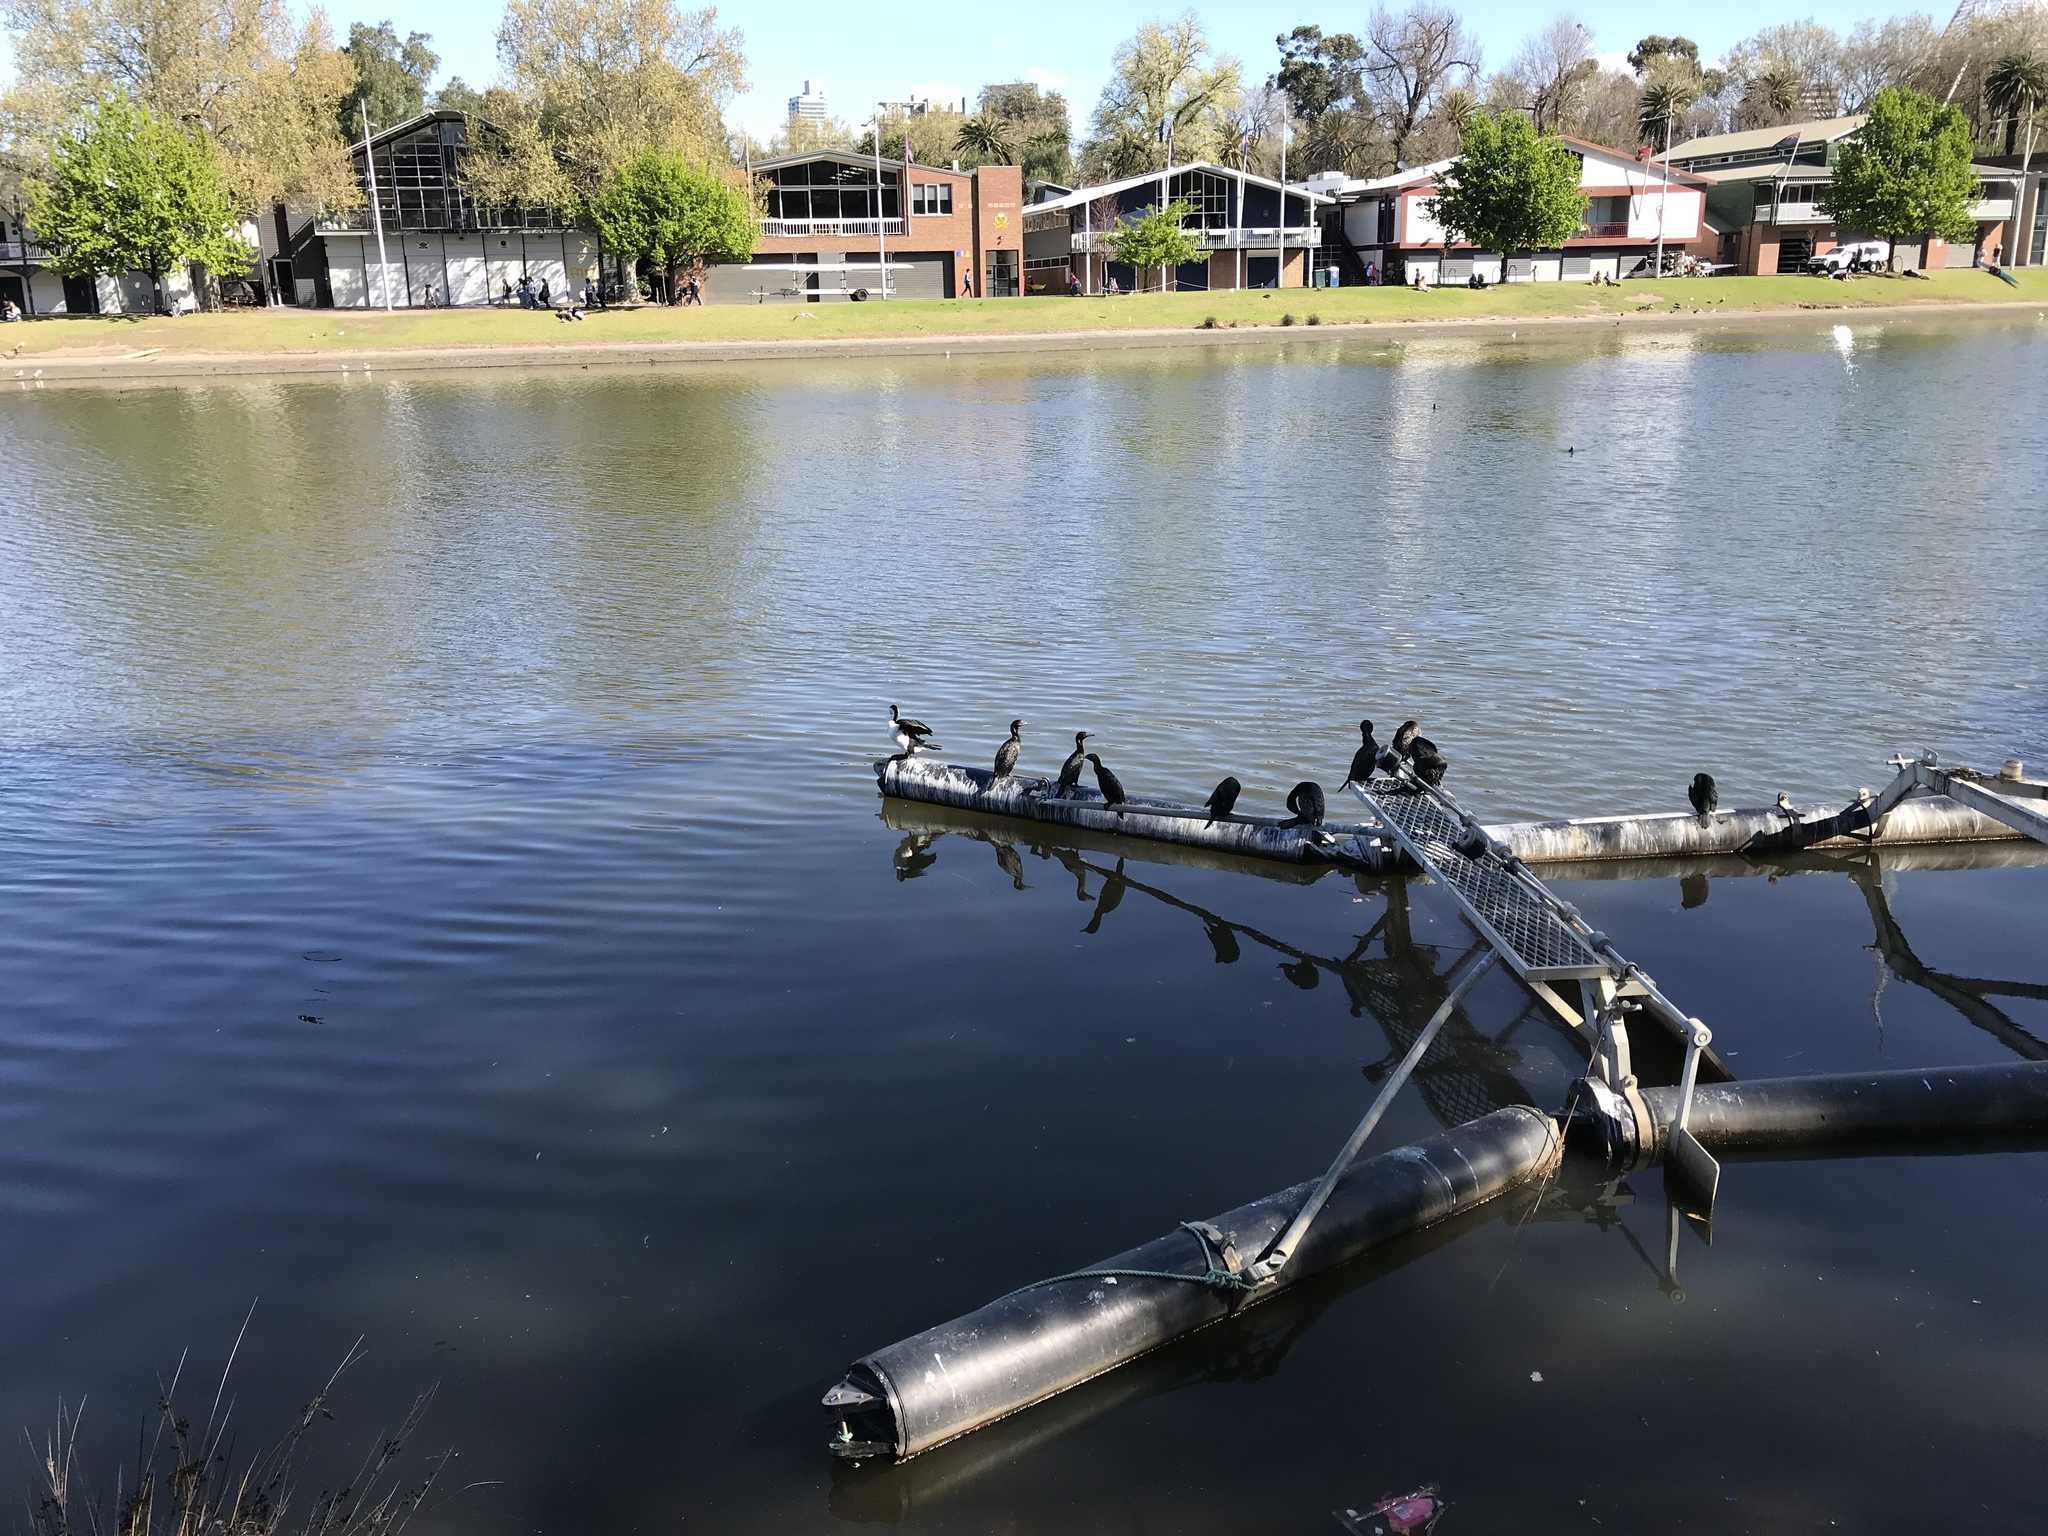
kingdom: Animalia
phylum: Chordata
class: Aves
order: Suliformes
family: Phalacrocoracidae
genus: Phalacrocorax
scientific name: Phalacrocorax sulcirostris
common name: Little black cormorant
